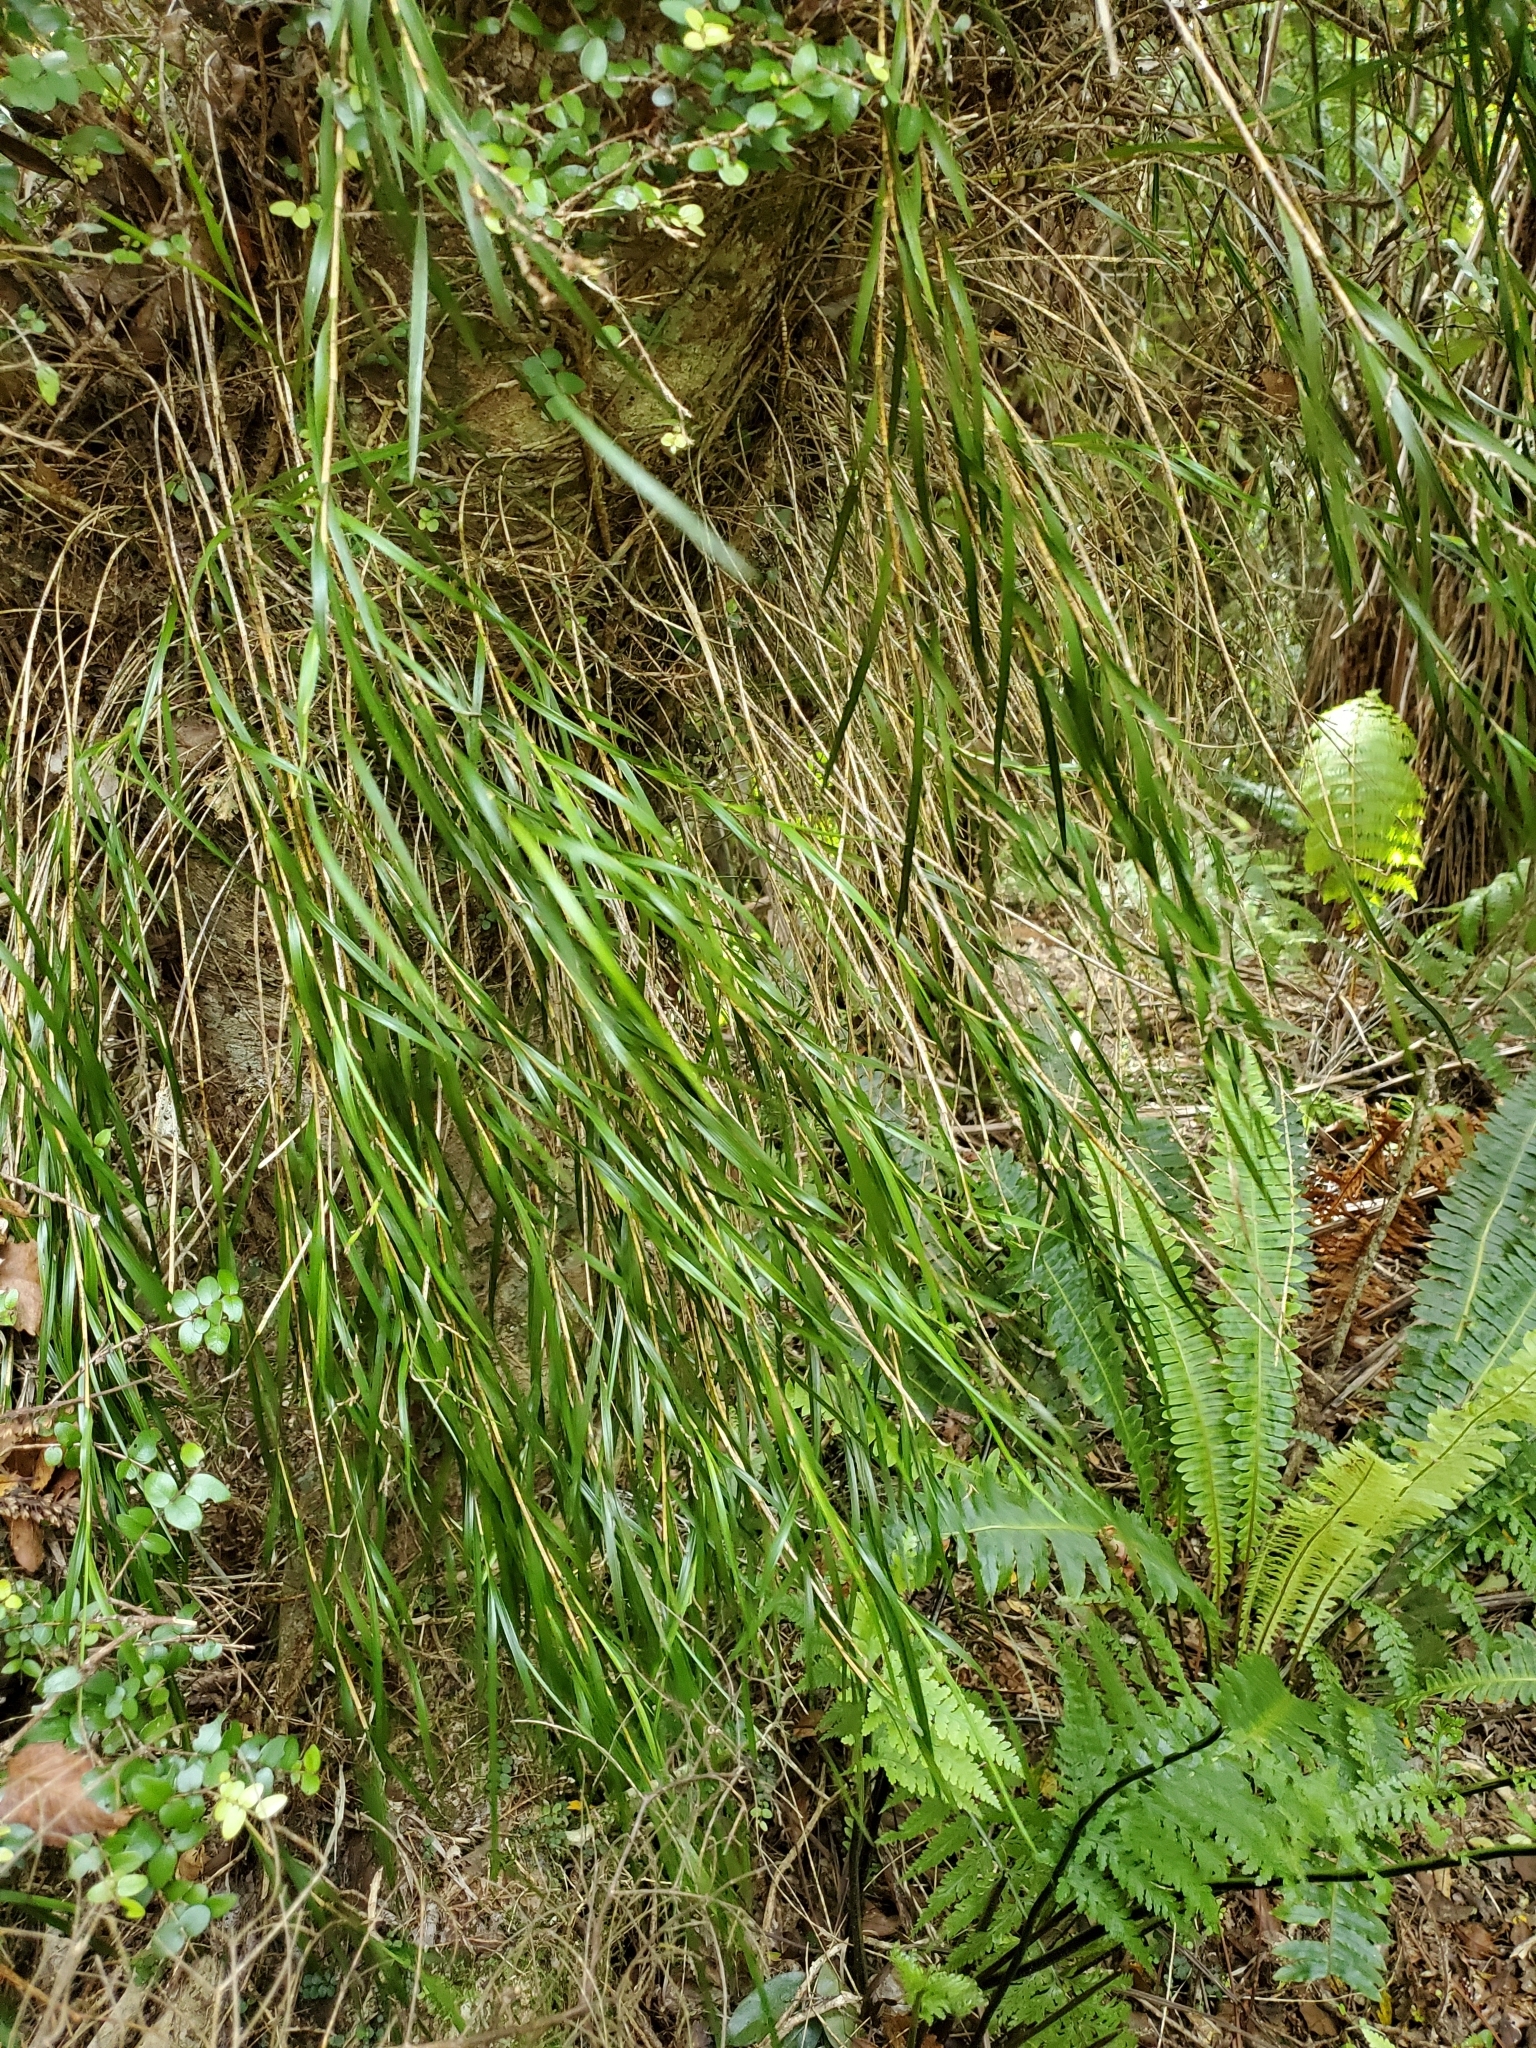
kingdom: Plantae
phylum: Tracheophyta
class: Liliopsida
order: Asparagales
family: Orchidaceae
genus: Earina
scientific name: Earina mucronata
